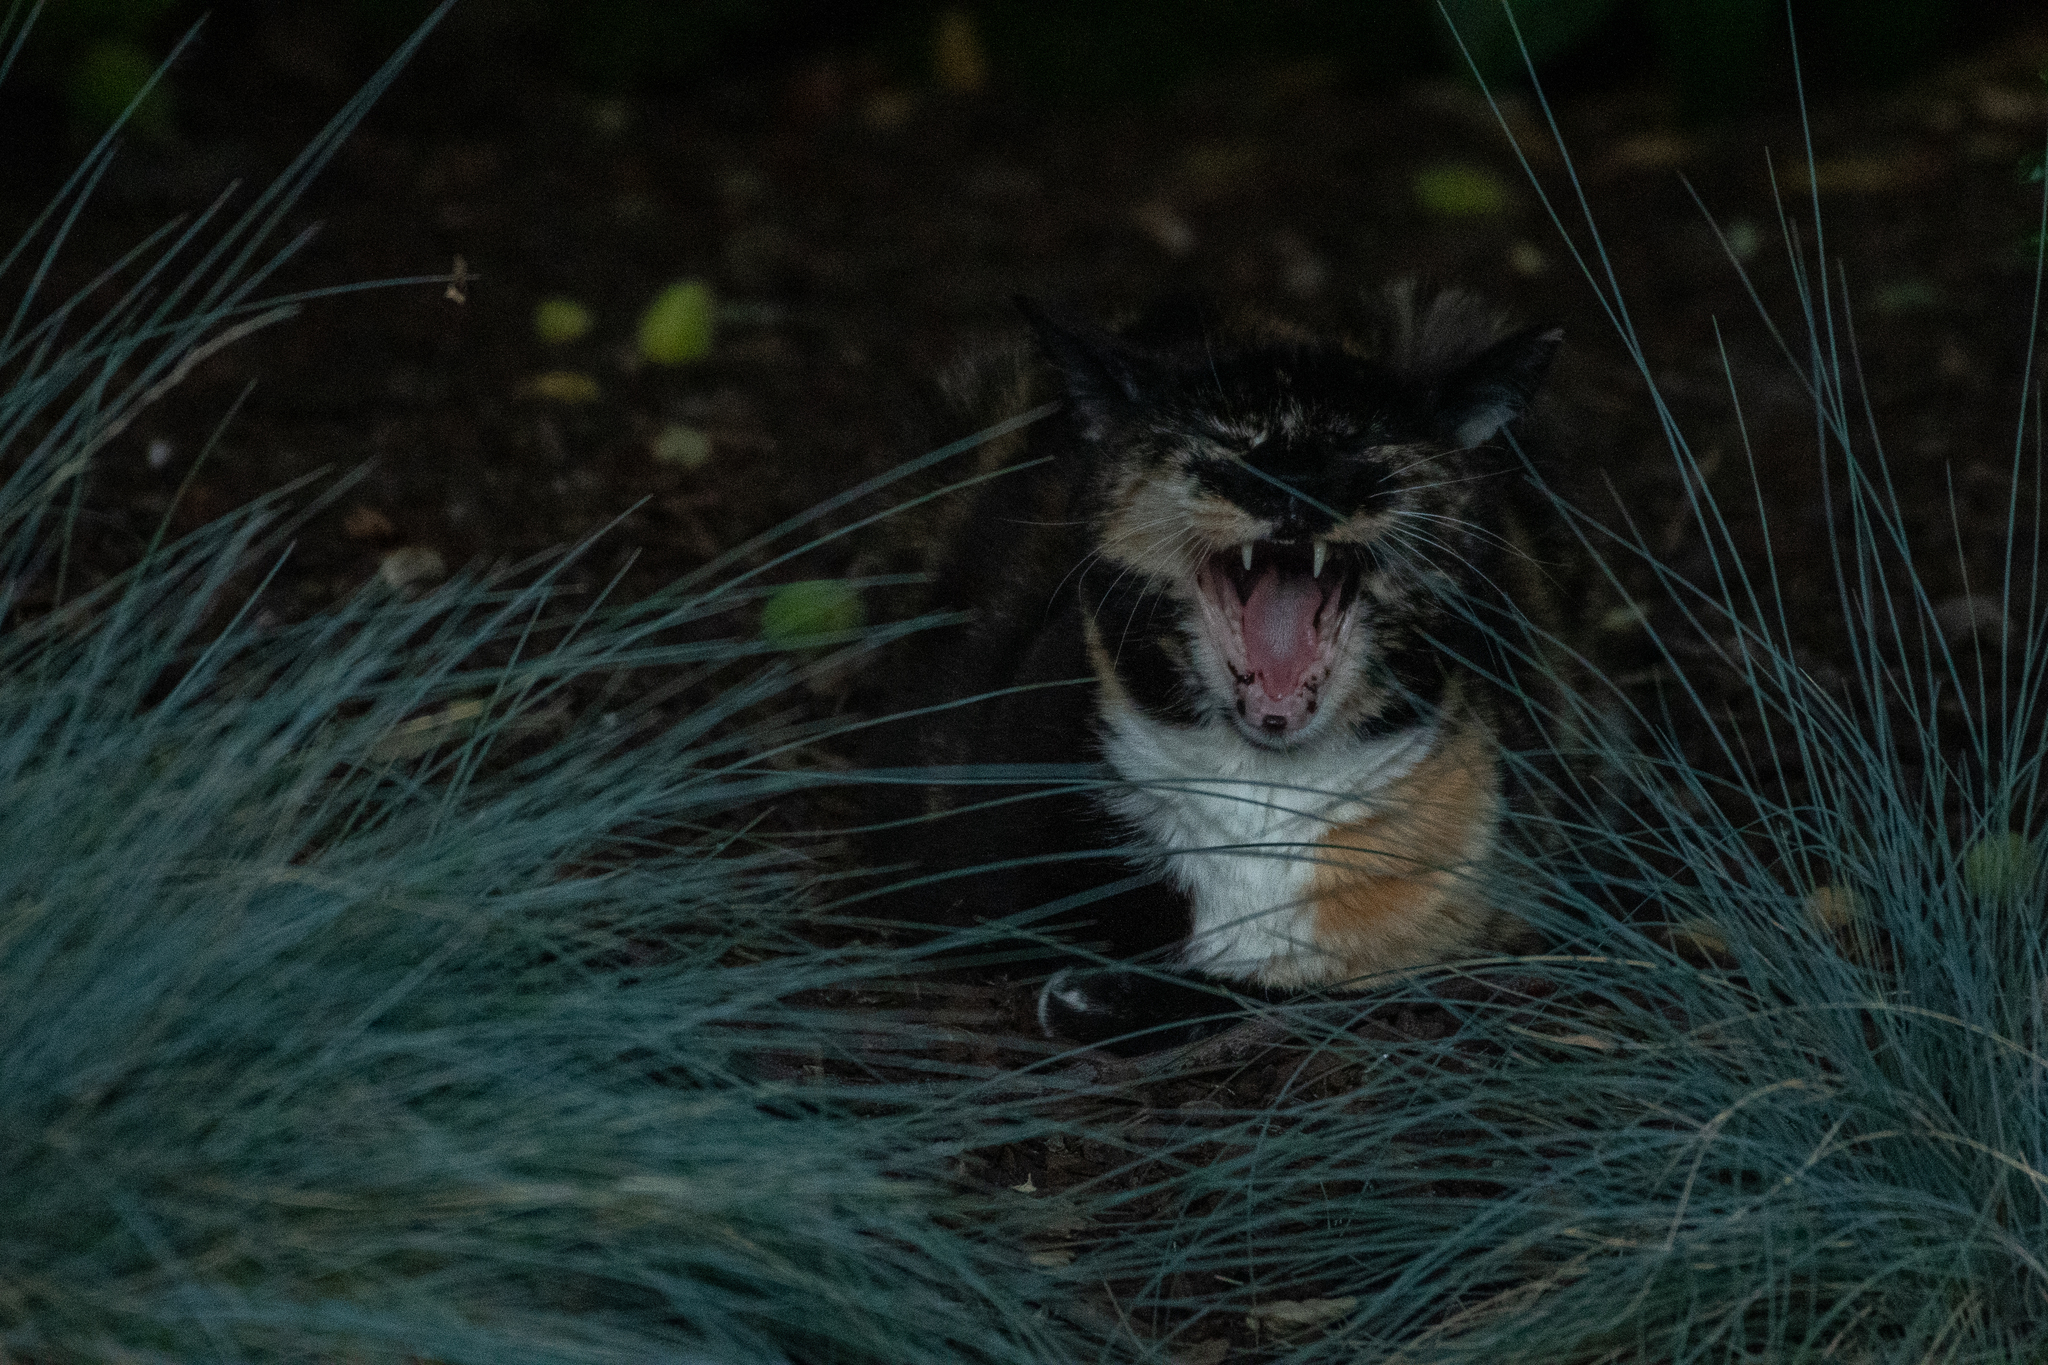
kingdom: Animalia
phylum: Chordata
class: Mammalia
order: Carnivora
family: Felidae
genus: Felis
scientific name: Felis catus
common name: Domestic cat
